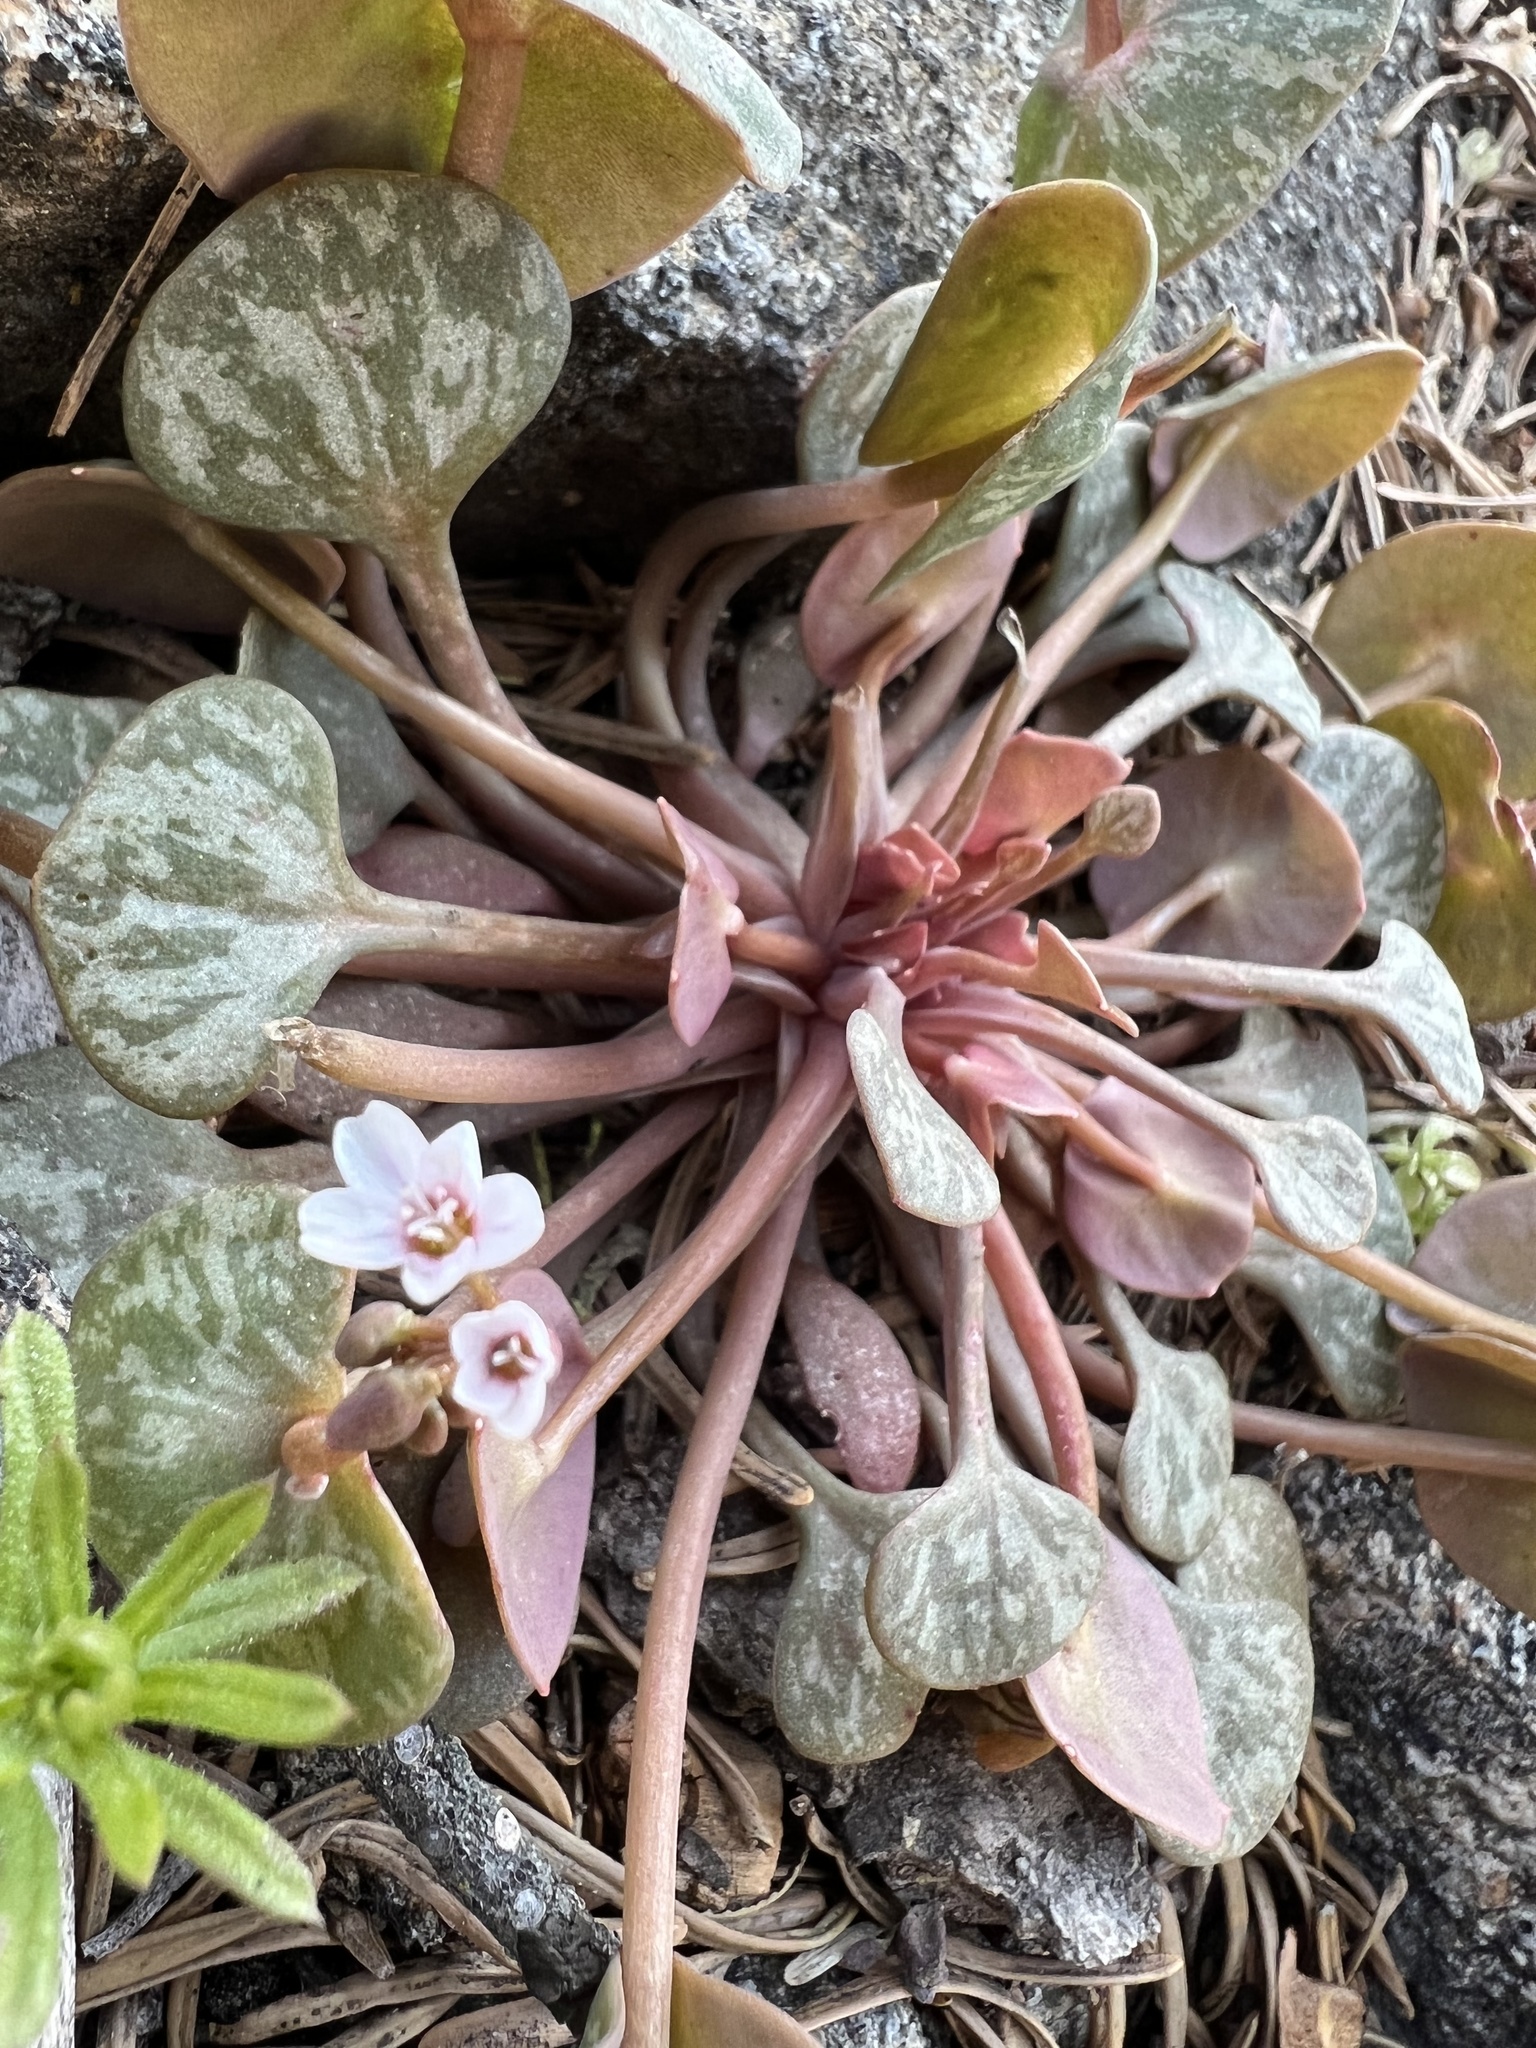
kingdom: Plantae
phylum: Tracheophyta
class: Magnoliopsida
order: Caryophyllales
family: Montiaceae
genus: Claytonia
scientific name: Claytonia rubra
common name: Erubescent miner's-lettuce
